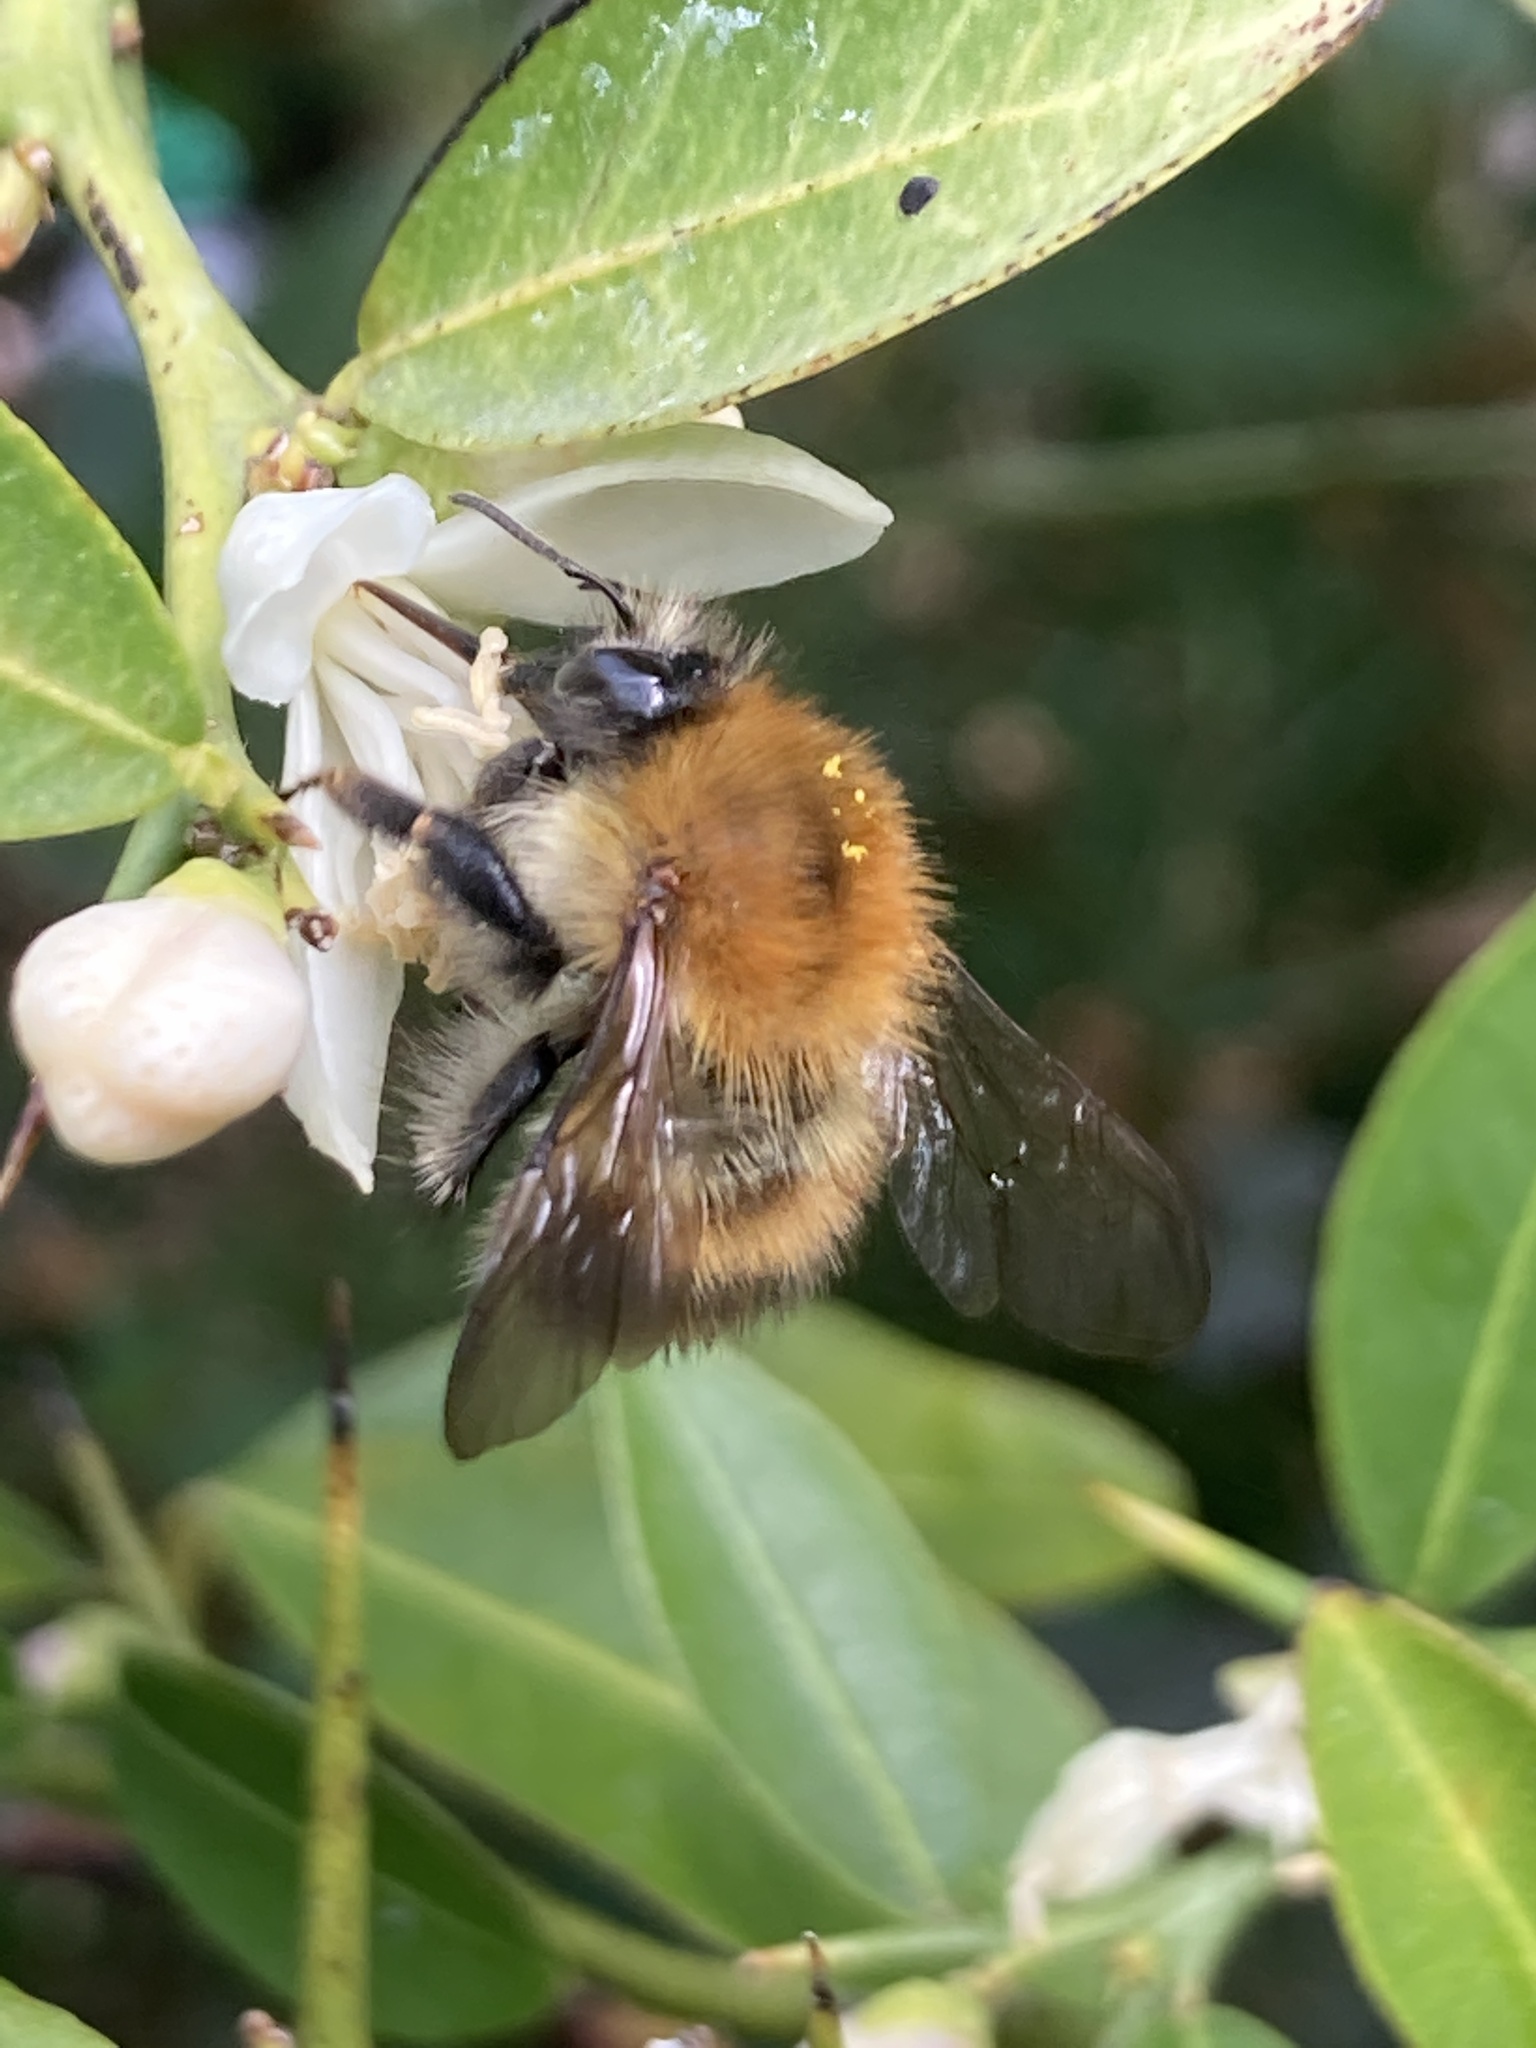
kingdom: Animalia
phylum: Arthropoda
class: Insecta
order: Hymenoptera
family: Apidae
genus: Bombus
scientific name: Bombus pascuorum
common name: Common carder bee
